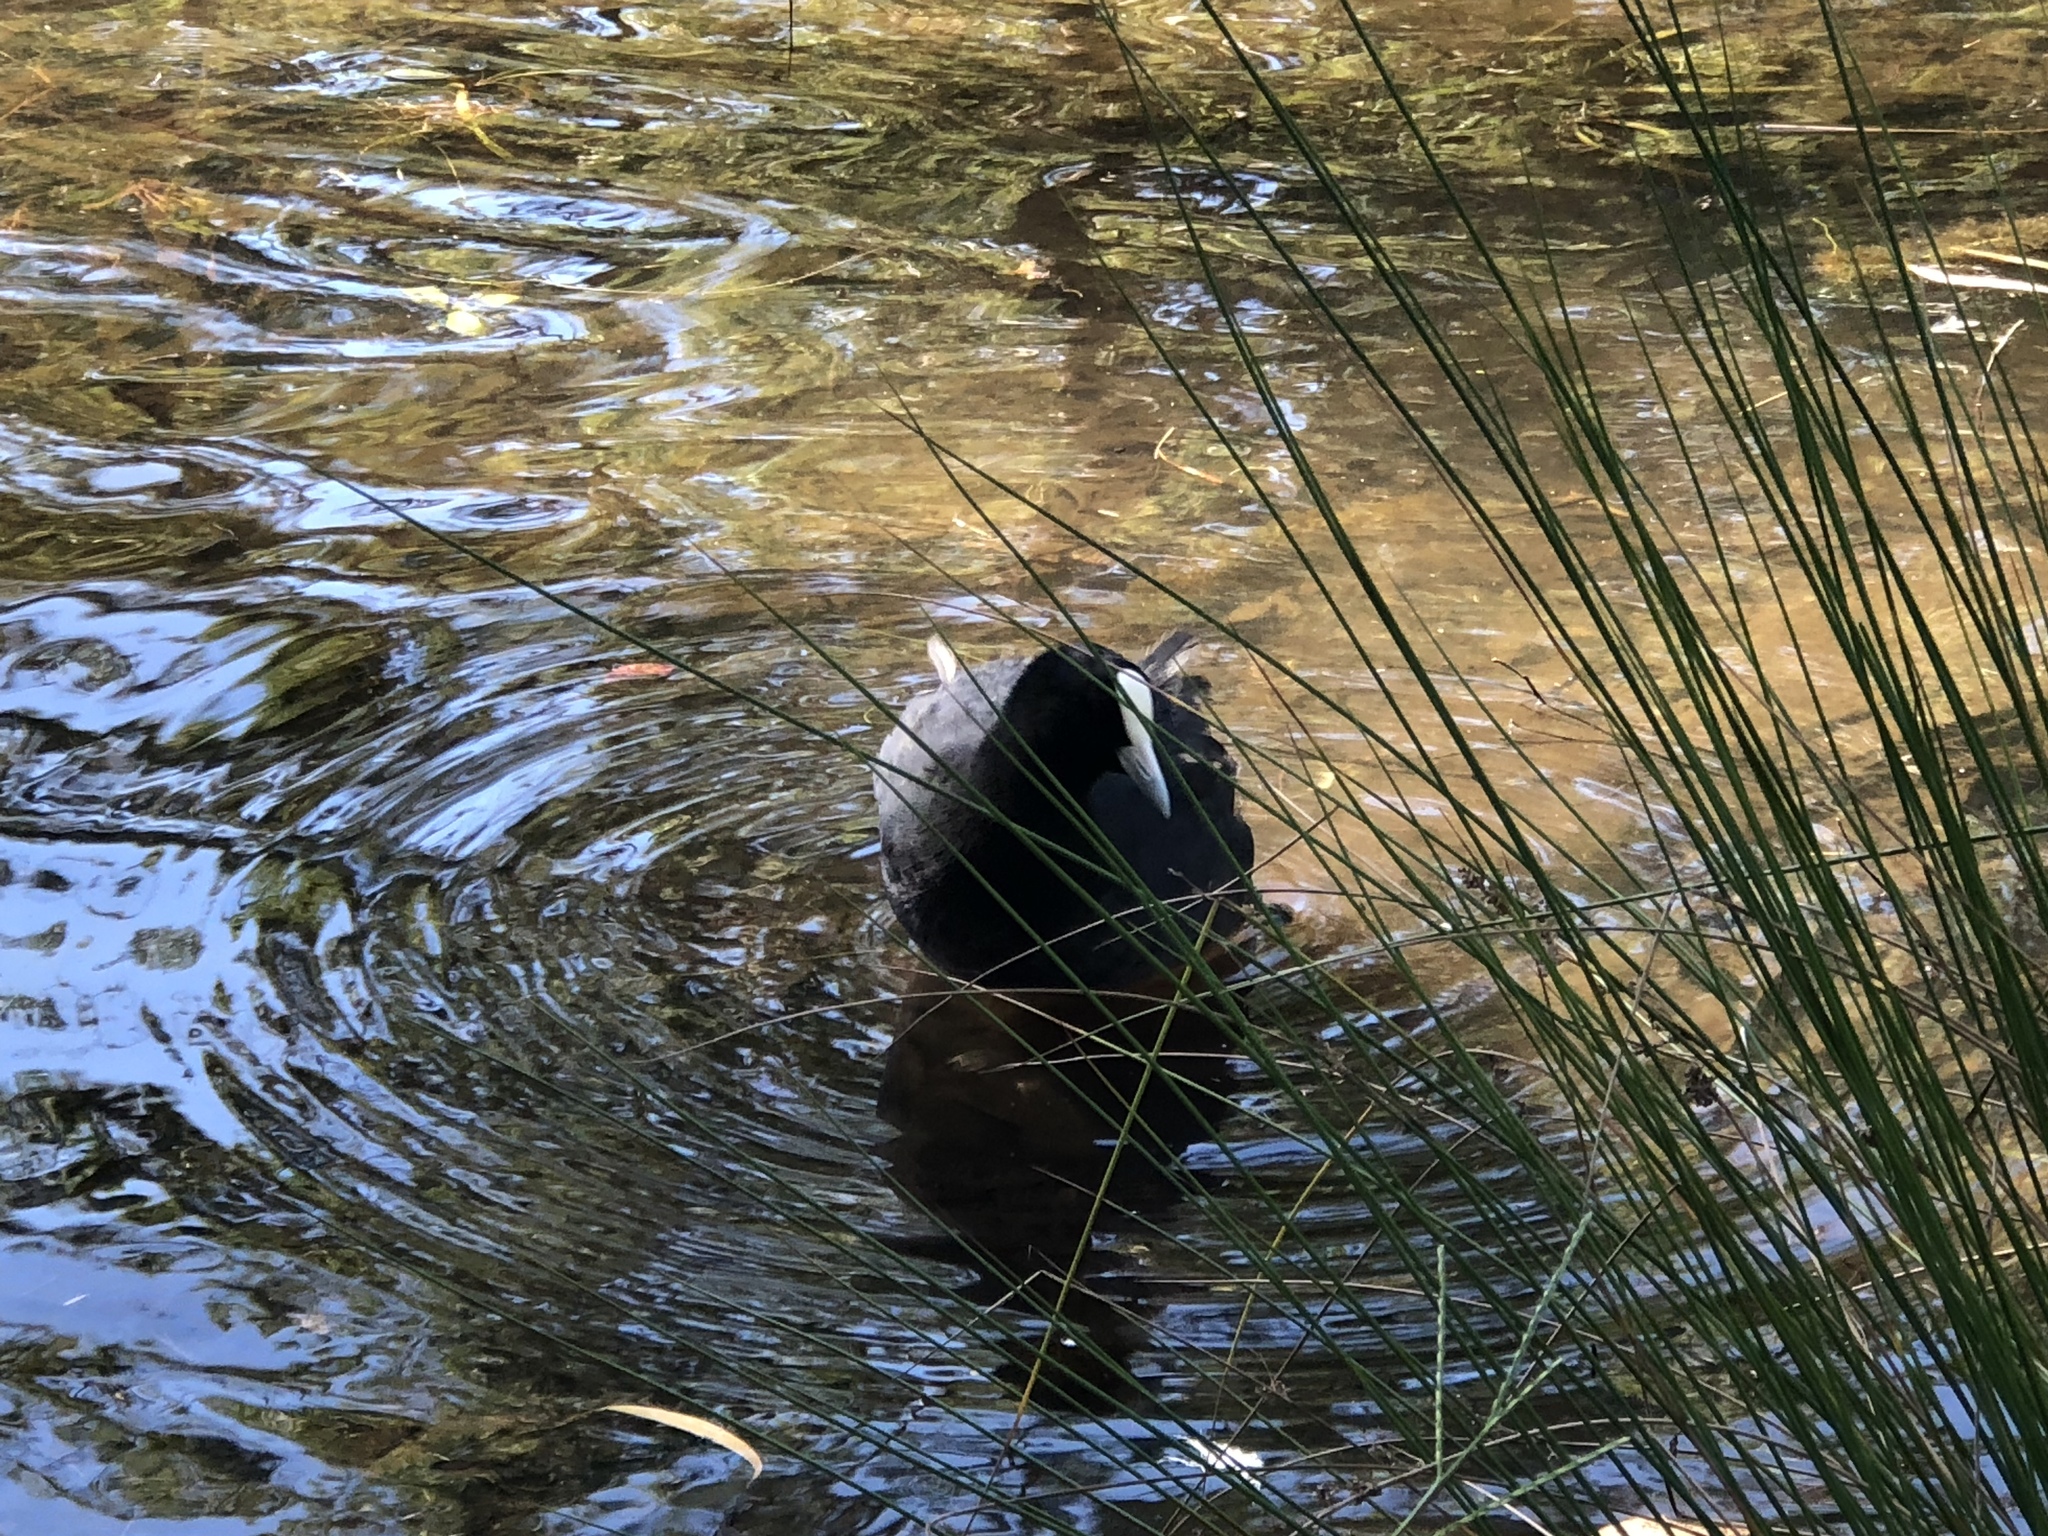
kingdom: Animalia
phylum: Chordata
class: Aves
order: Gruiformes
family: Rallidae
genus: Fulica
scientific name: Fulica atra
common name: Eurasian coot
